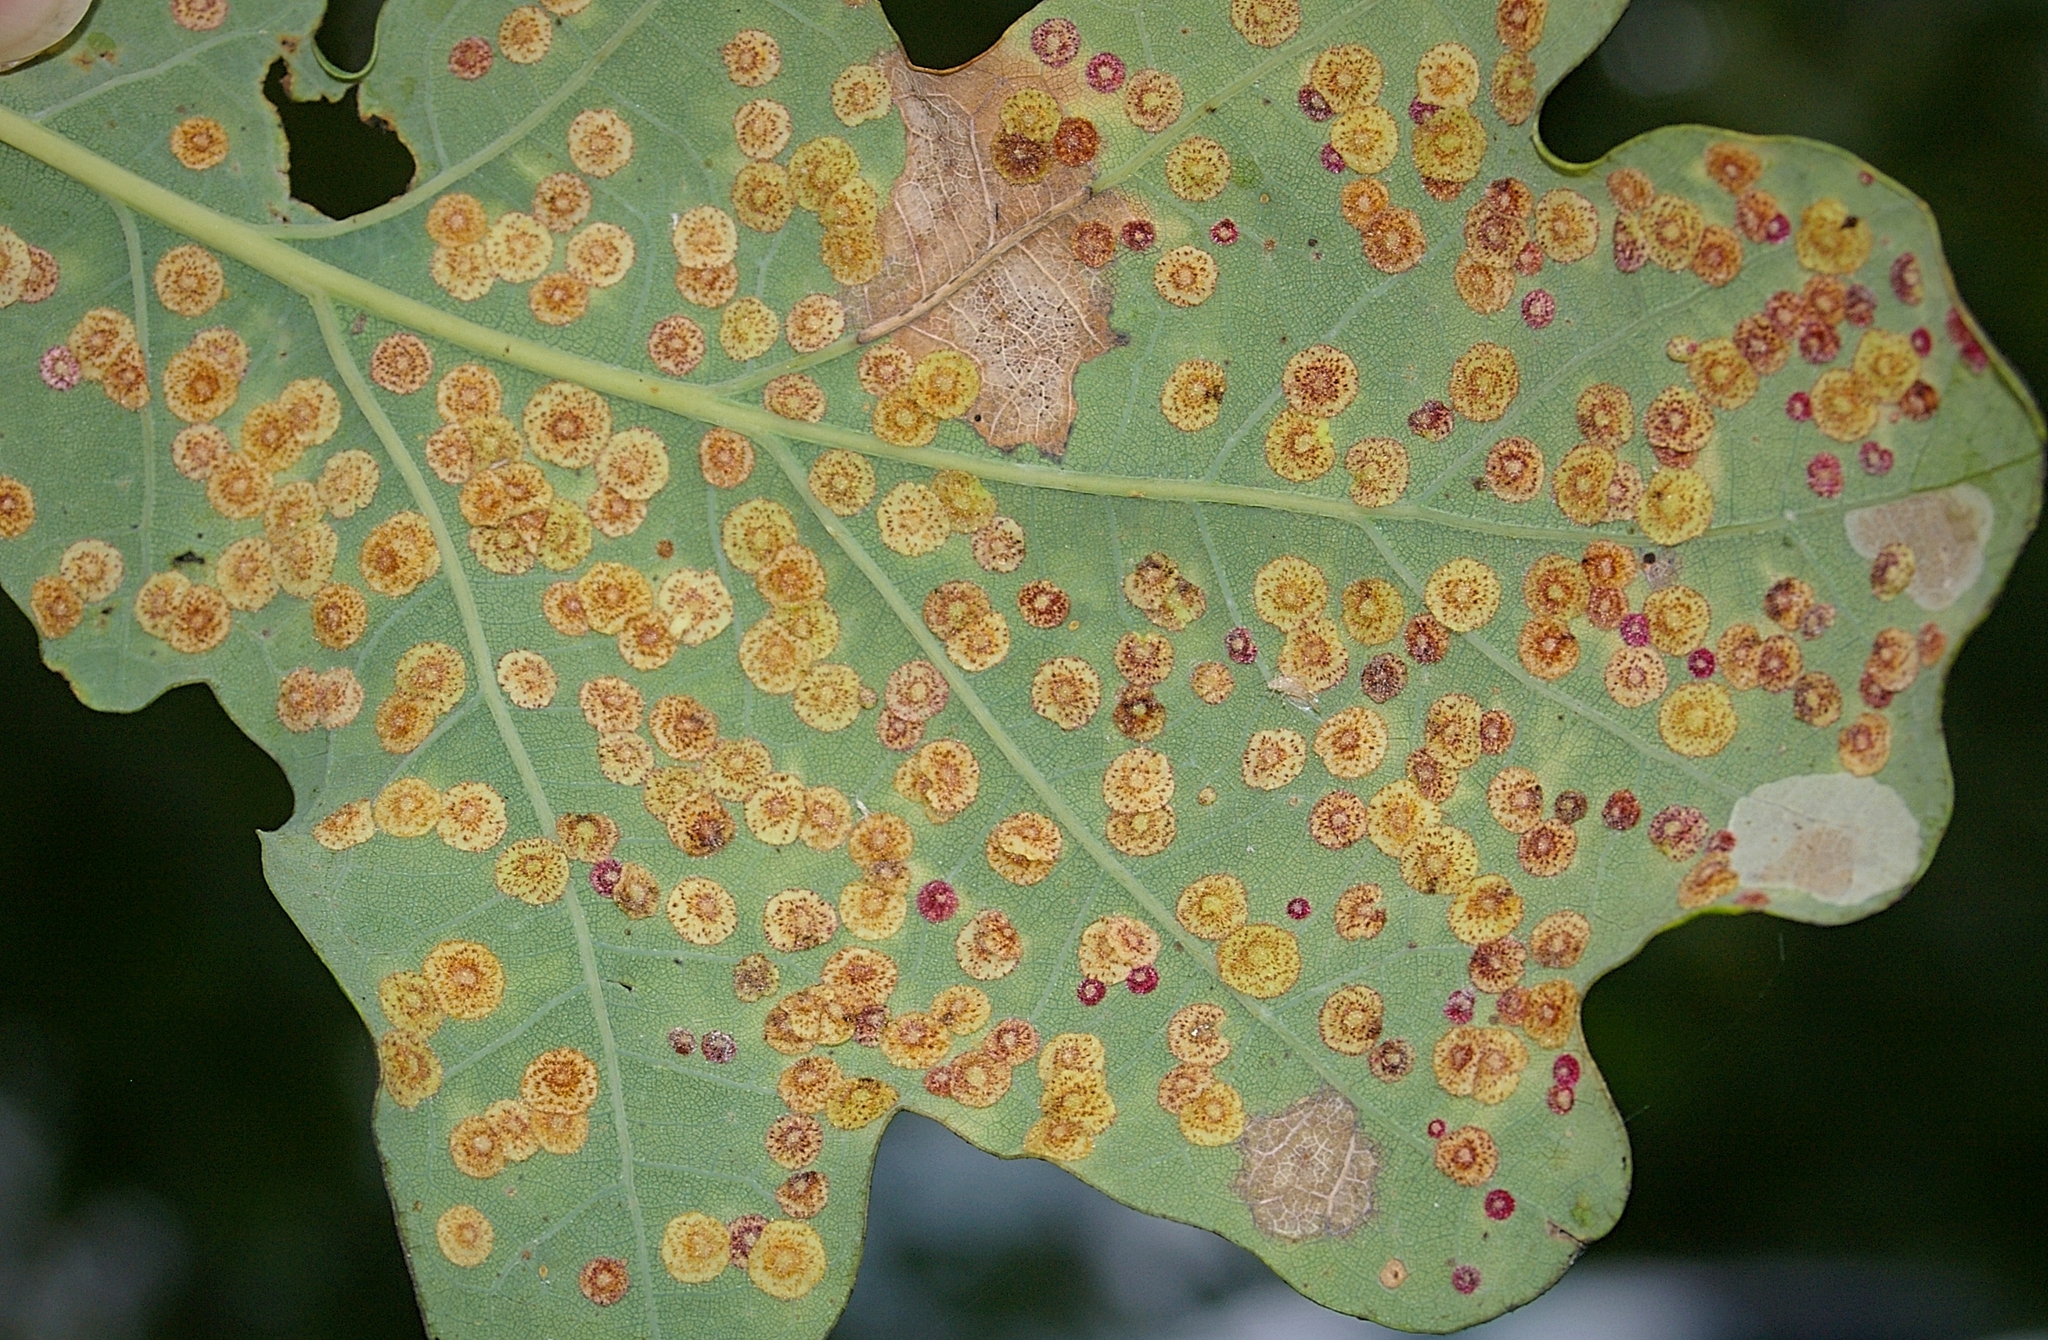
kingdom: Animalia
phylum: Arthropoda
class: Insecta
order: Hymenoptera
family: Cynipidae
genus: Neuroterus
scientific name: Neuroterus quercusbaccarum
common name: Common spangle gall
